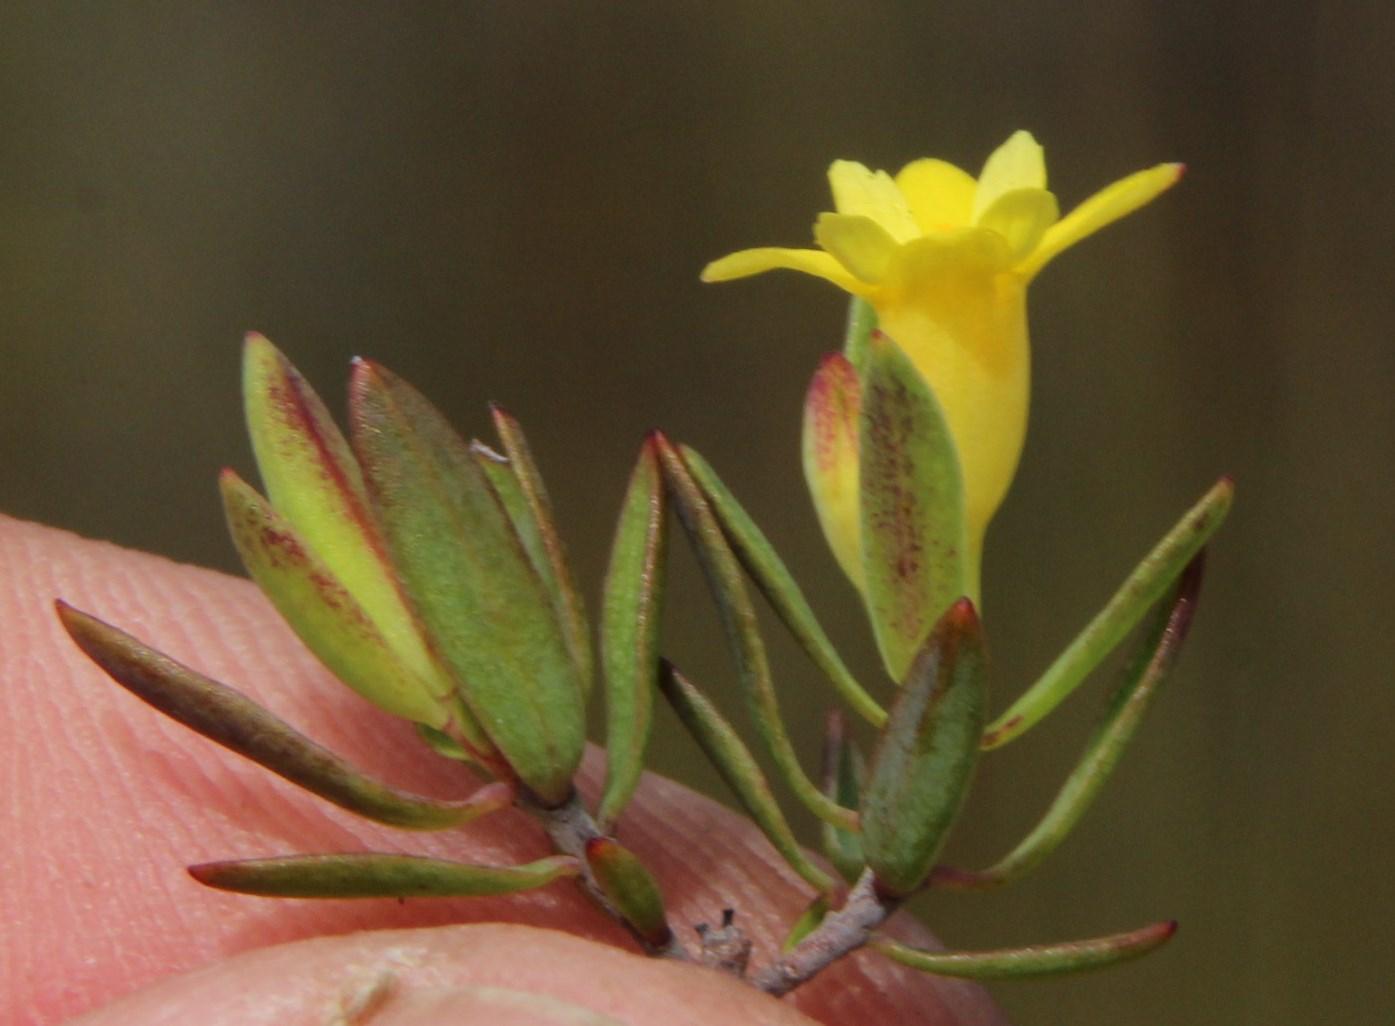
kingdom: Plantae
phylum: Tracheophyta
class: Magnoliopsida
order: Malvales
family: Thymelaeaceae
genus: Gnidia
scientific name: Gnidia juniperifolia
